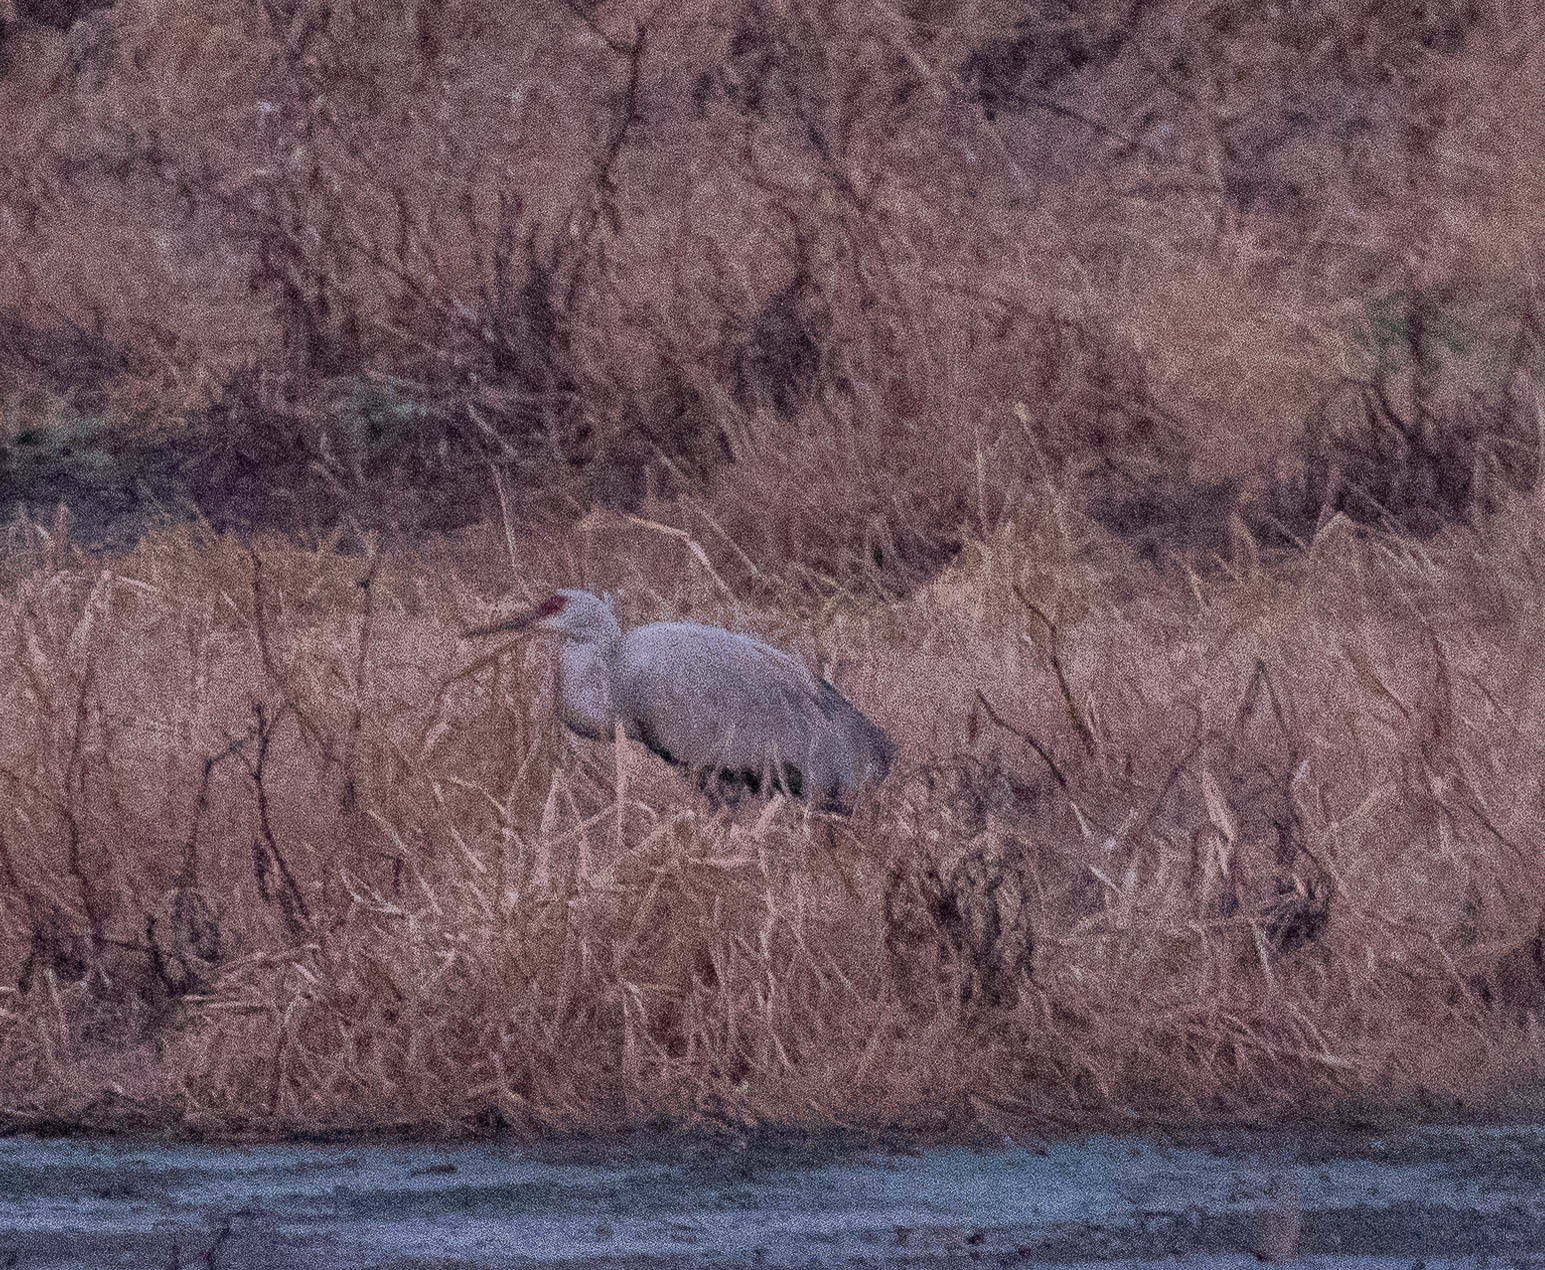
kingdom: Animalia
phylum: Chordata
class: Aves
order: Gruiformes
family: Gruidae
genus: Grus
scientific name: Grus canadensis
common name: Sandhill crane
